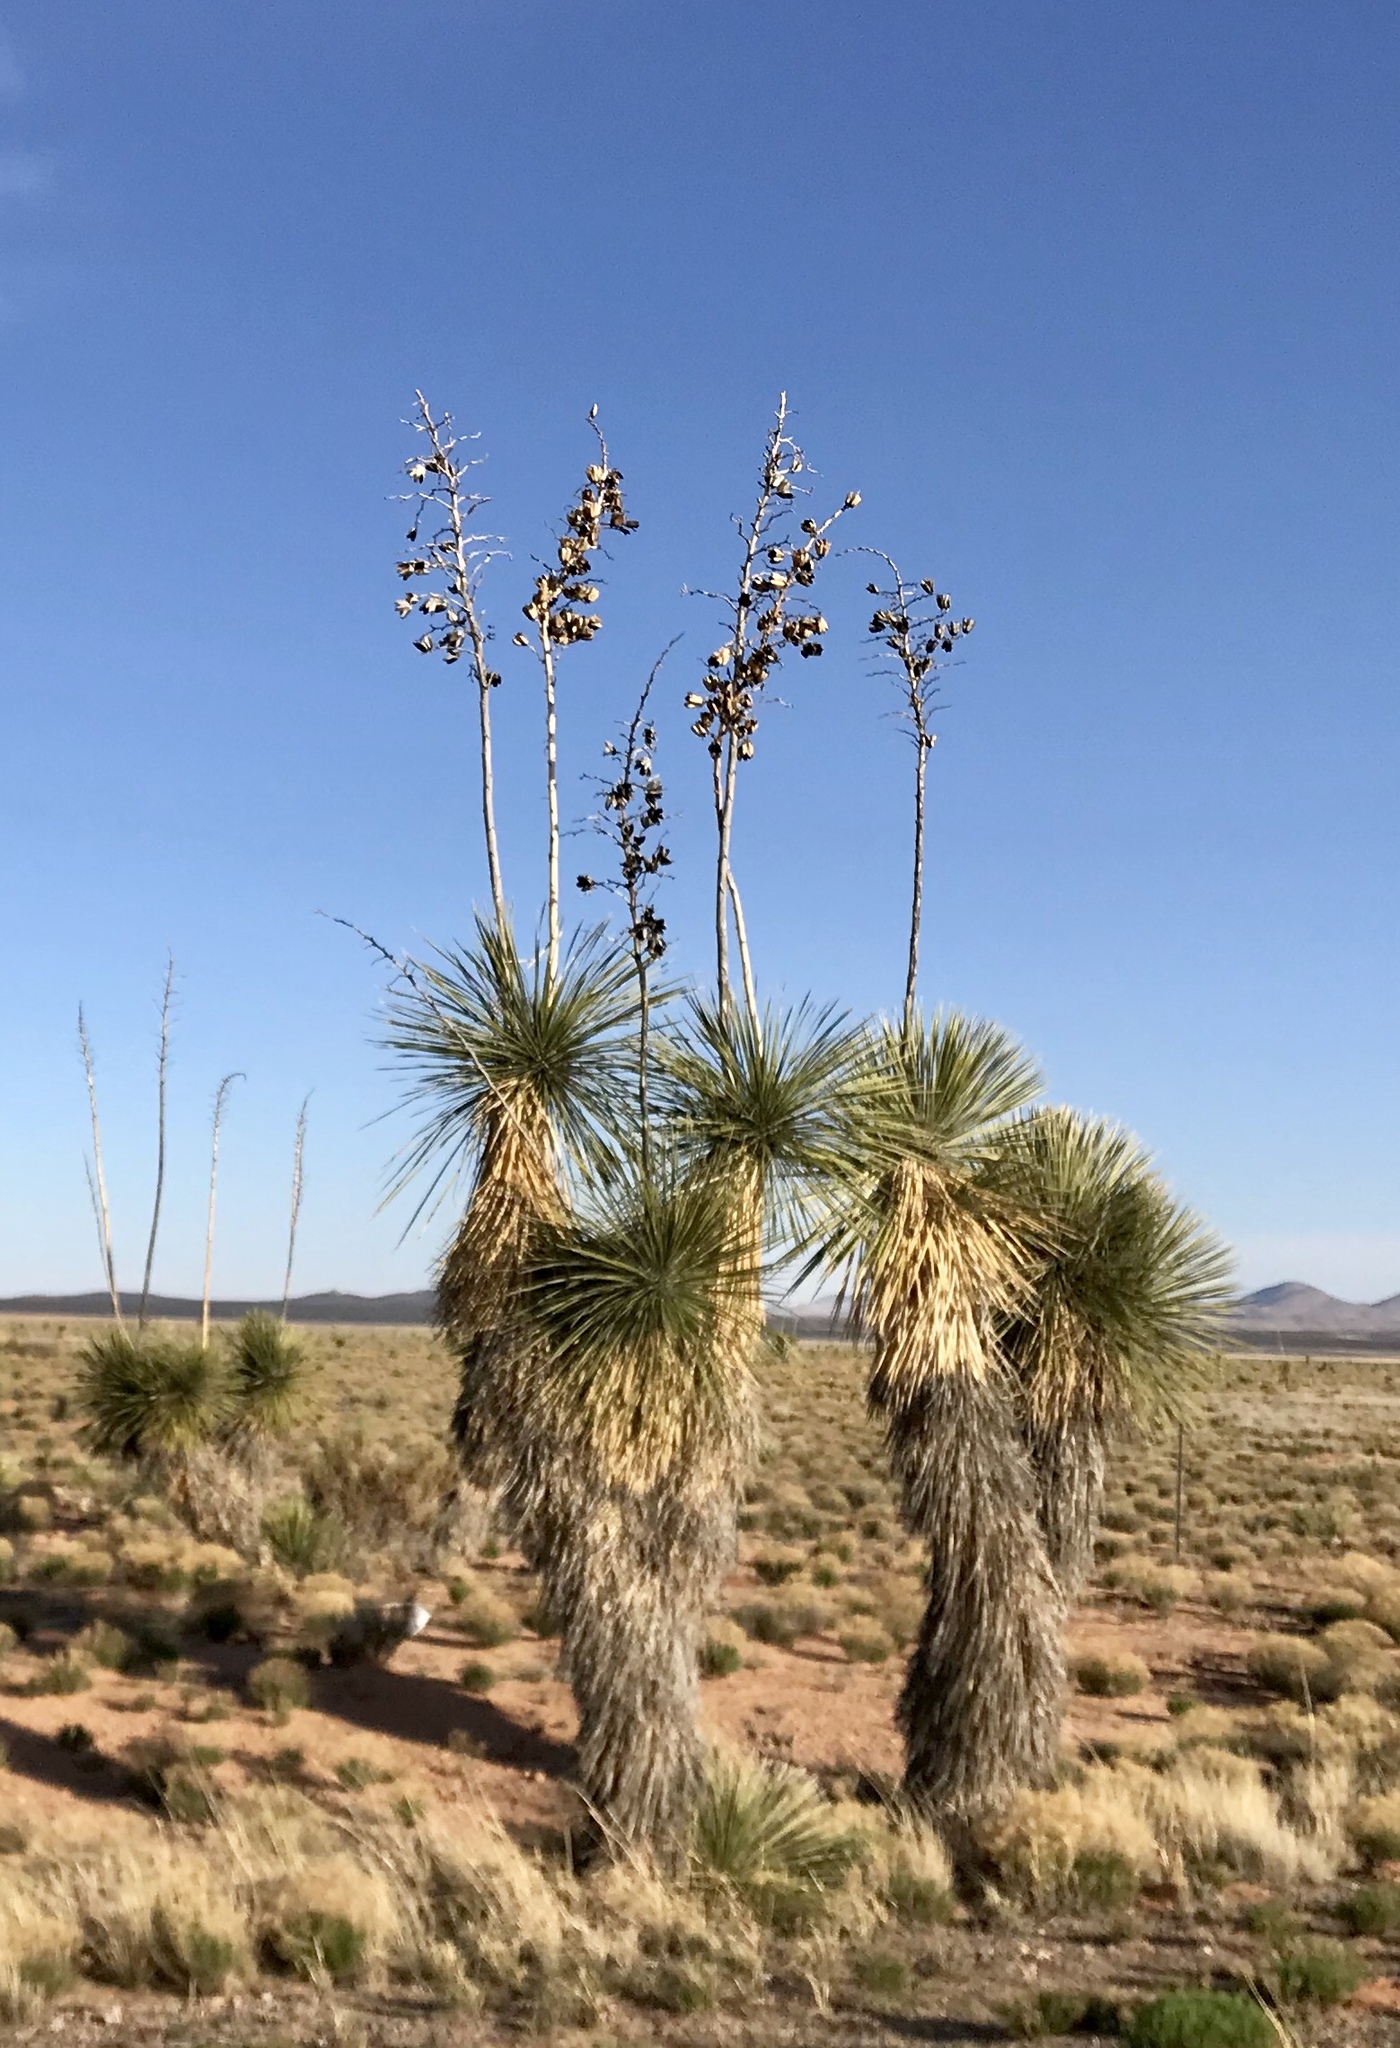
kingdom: Plantae
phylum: Tracheophyta
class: Liliopsida
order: Asparagales
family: Asparagaceae
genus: Yucca
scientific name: Yucca elata
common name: Palmella
